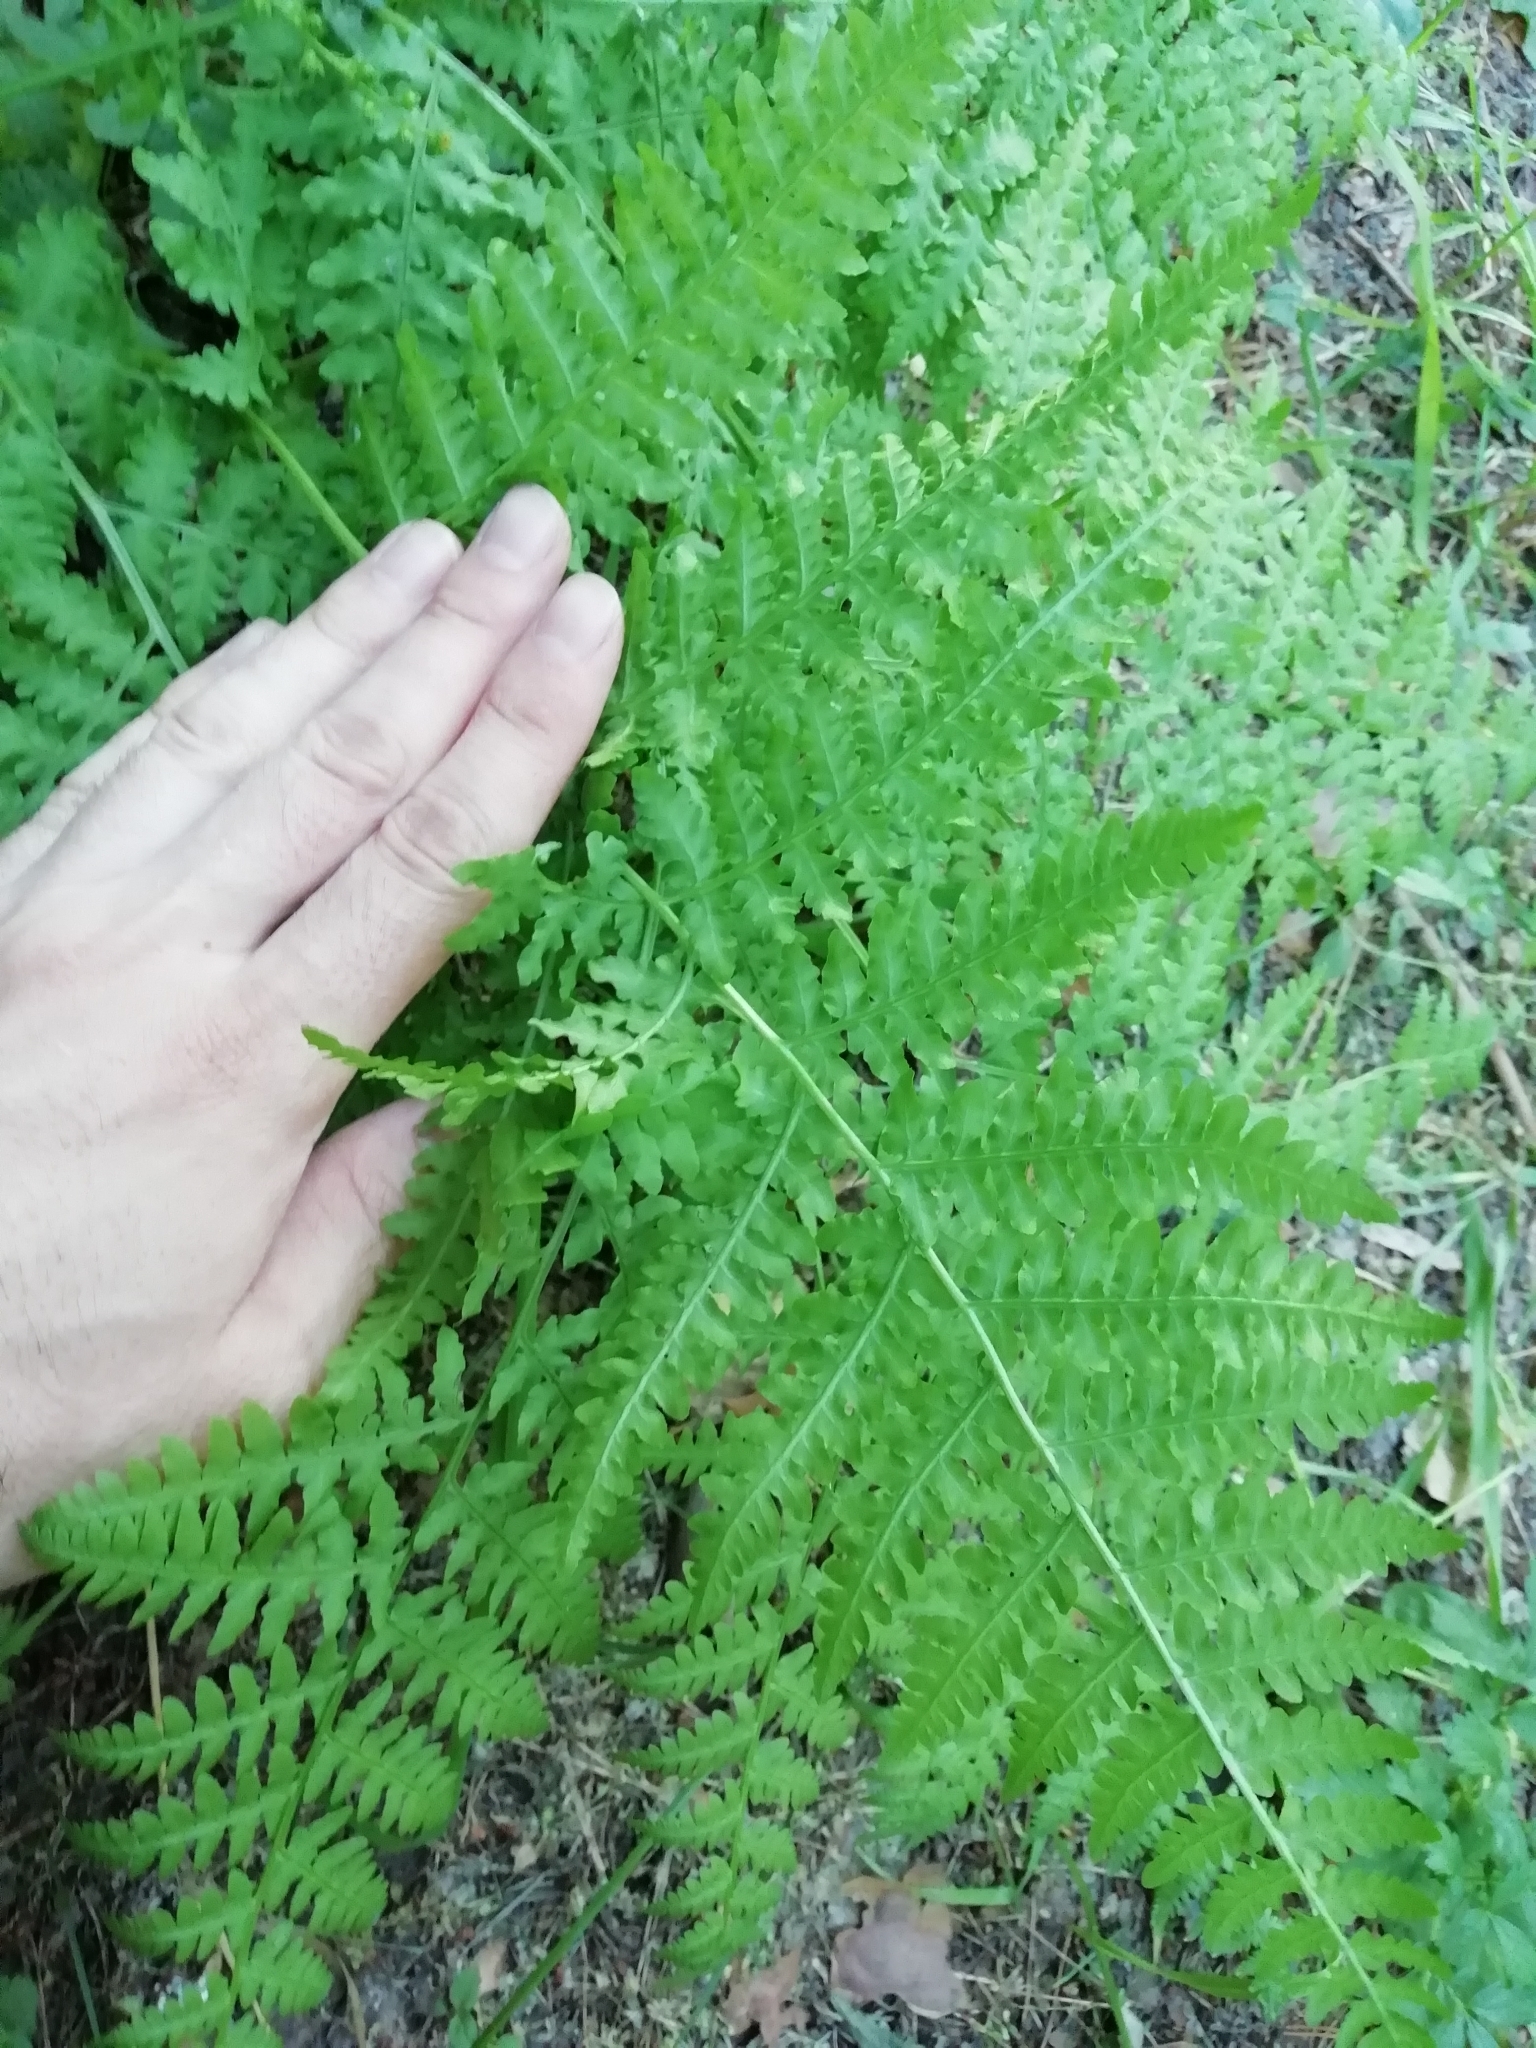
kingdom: Plantae
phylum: Tracheophyta
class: Polypodiopsida
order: Polypodiales
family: Dennstaedtiaceae
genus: Pteridium
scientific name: Pteridium aquilinum
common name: Bracken
